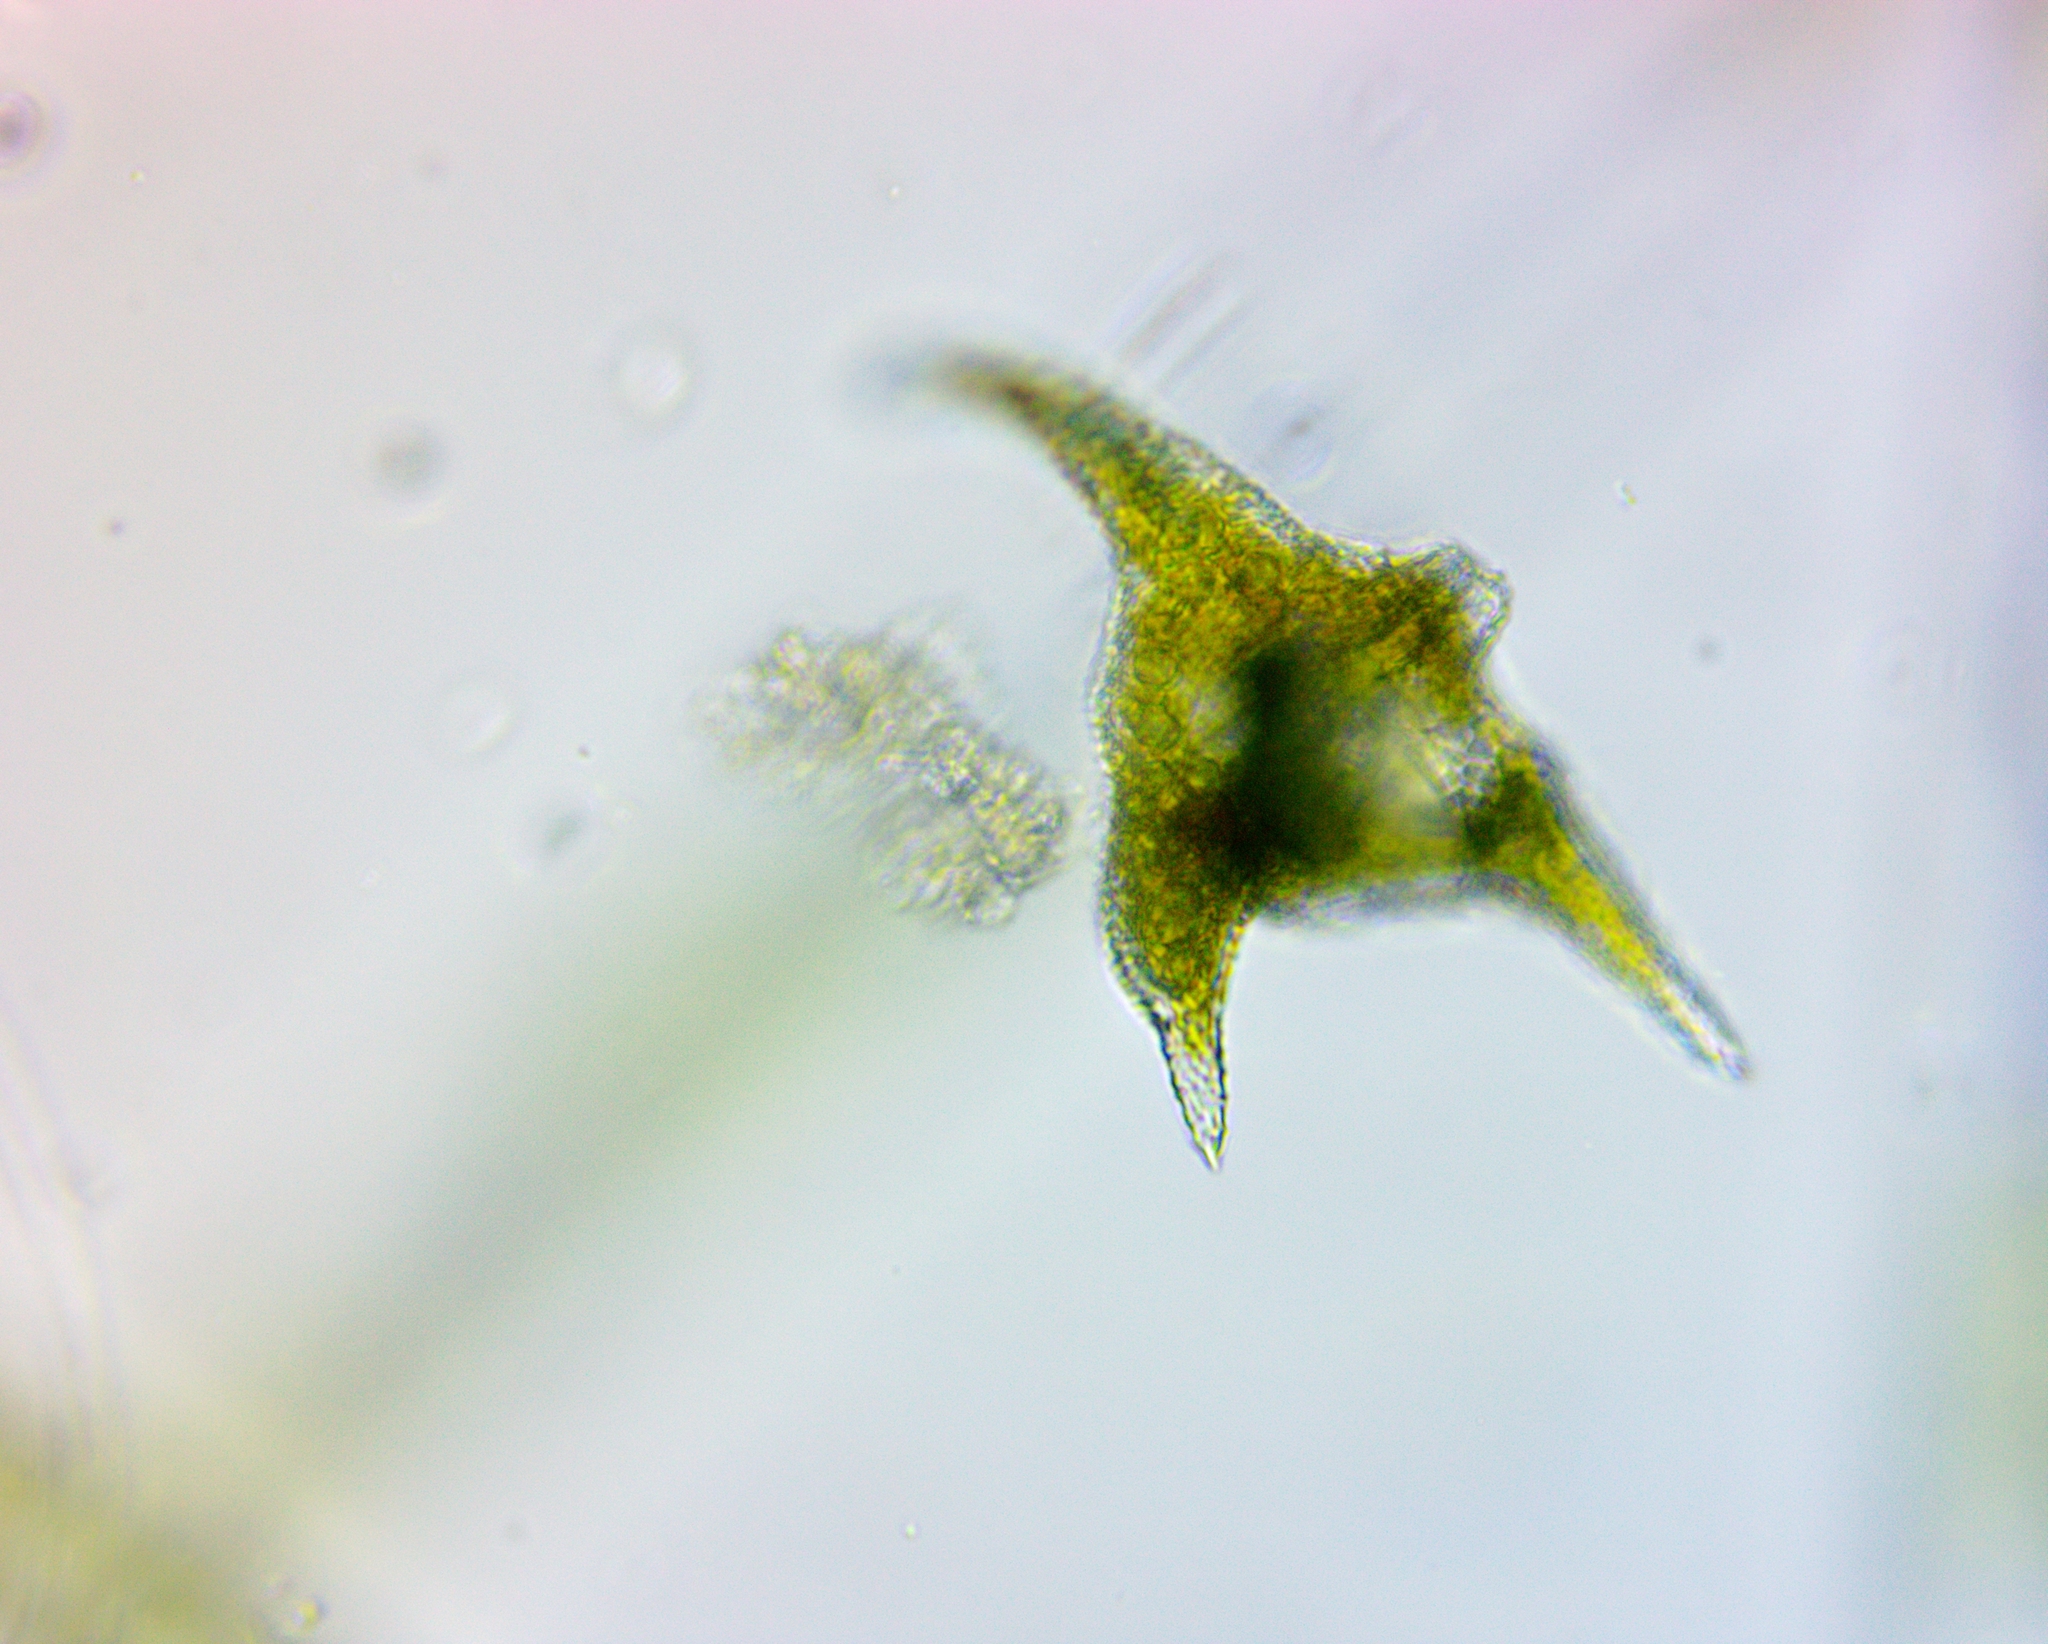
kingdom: Chromista
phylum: Myzozoa
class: Dinophyceae
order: Gonyaulacales
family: Ceratiaceae
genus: Ceratium
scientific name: Ceratium carolinianum
